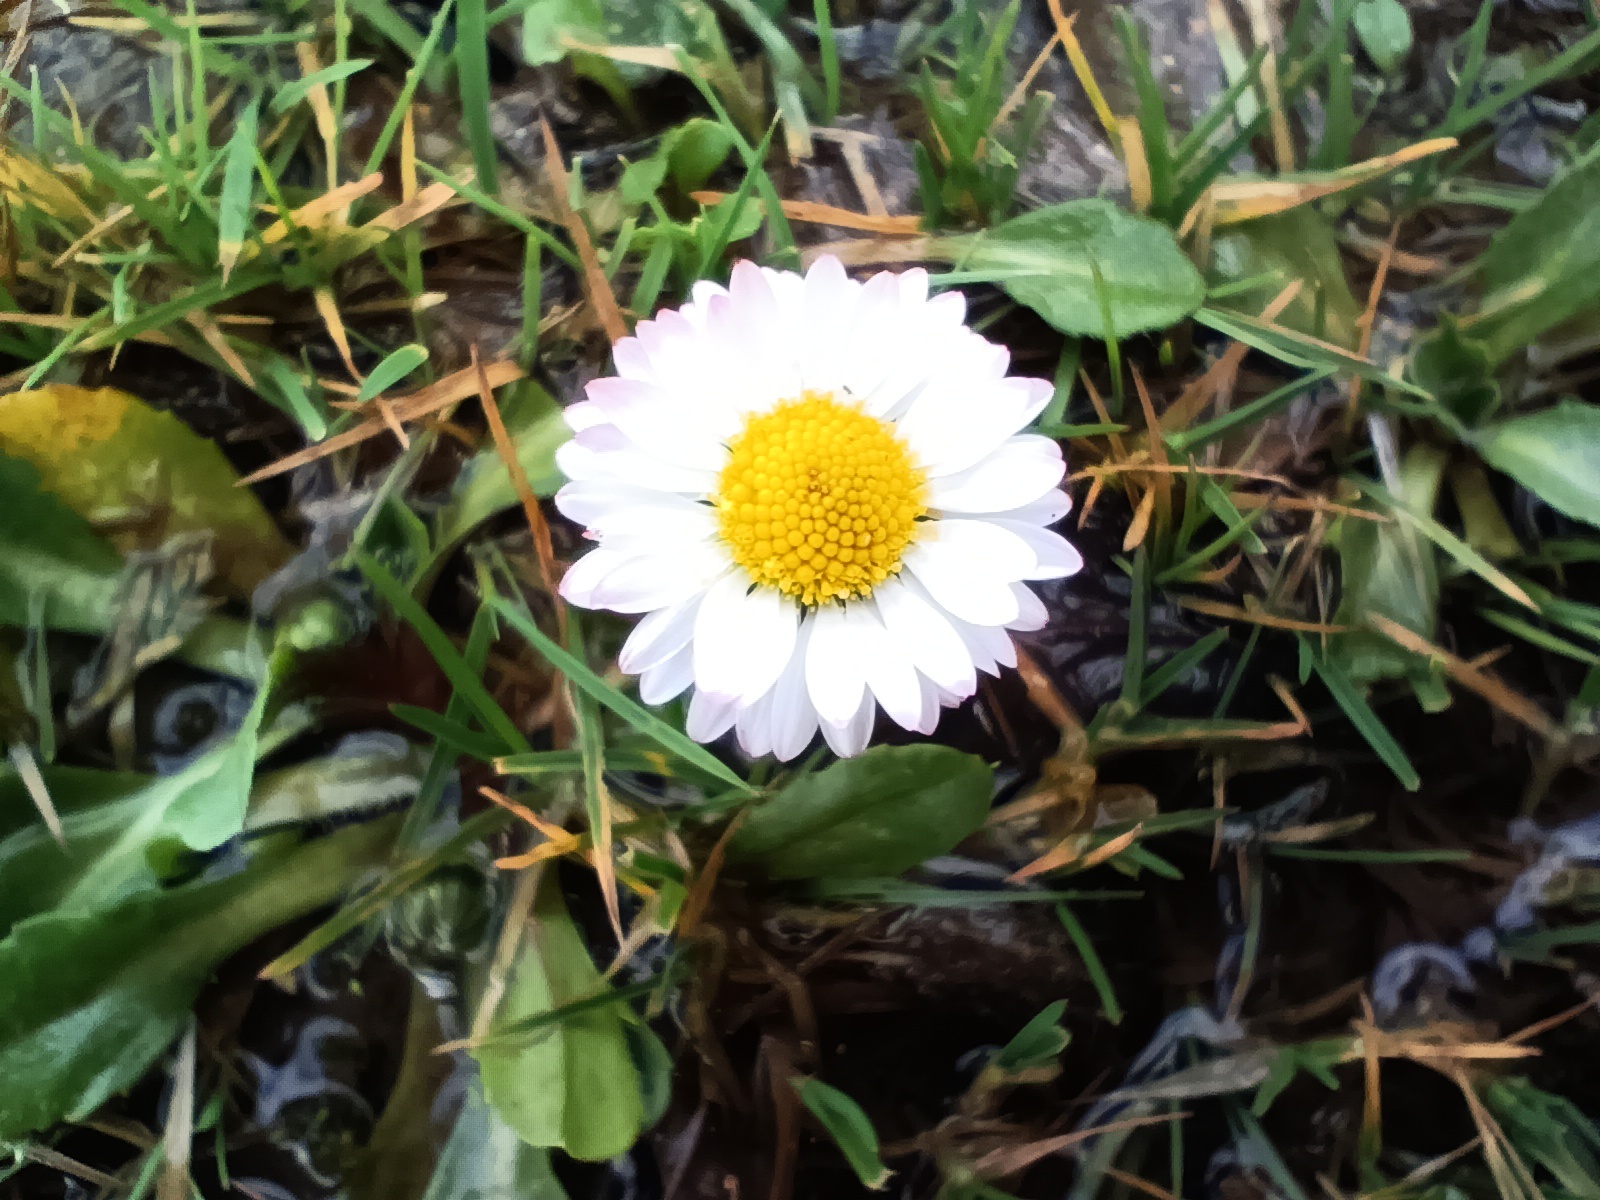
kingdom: Plantae
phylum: Tracheophyta
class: Magnoliopsida
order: Asterales
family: Asteraceae
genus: Bellis
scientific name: Bellis perennis
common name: Lawndaisy
